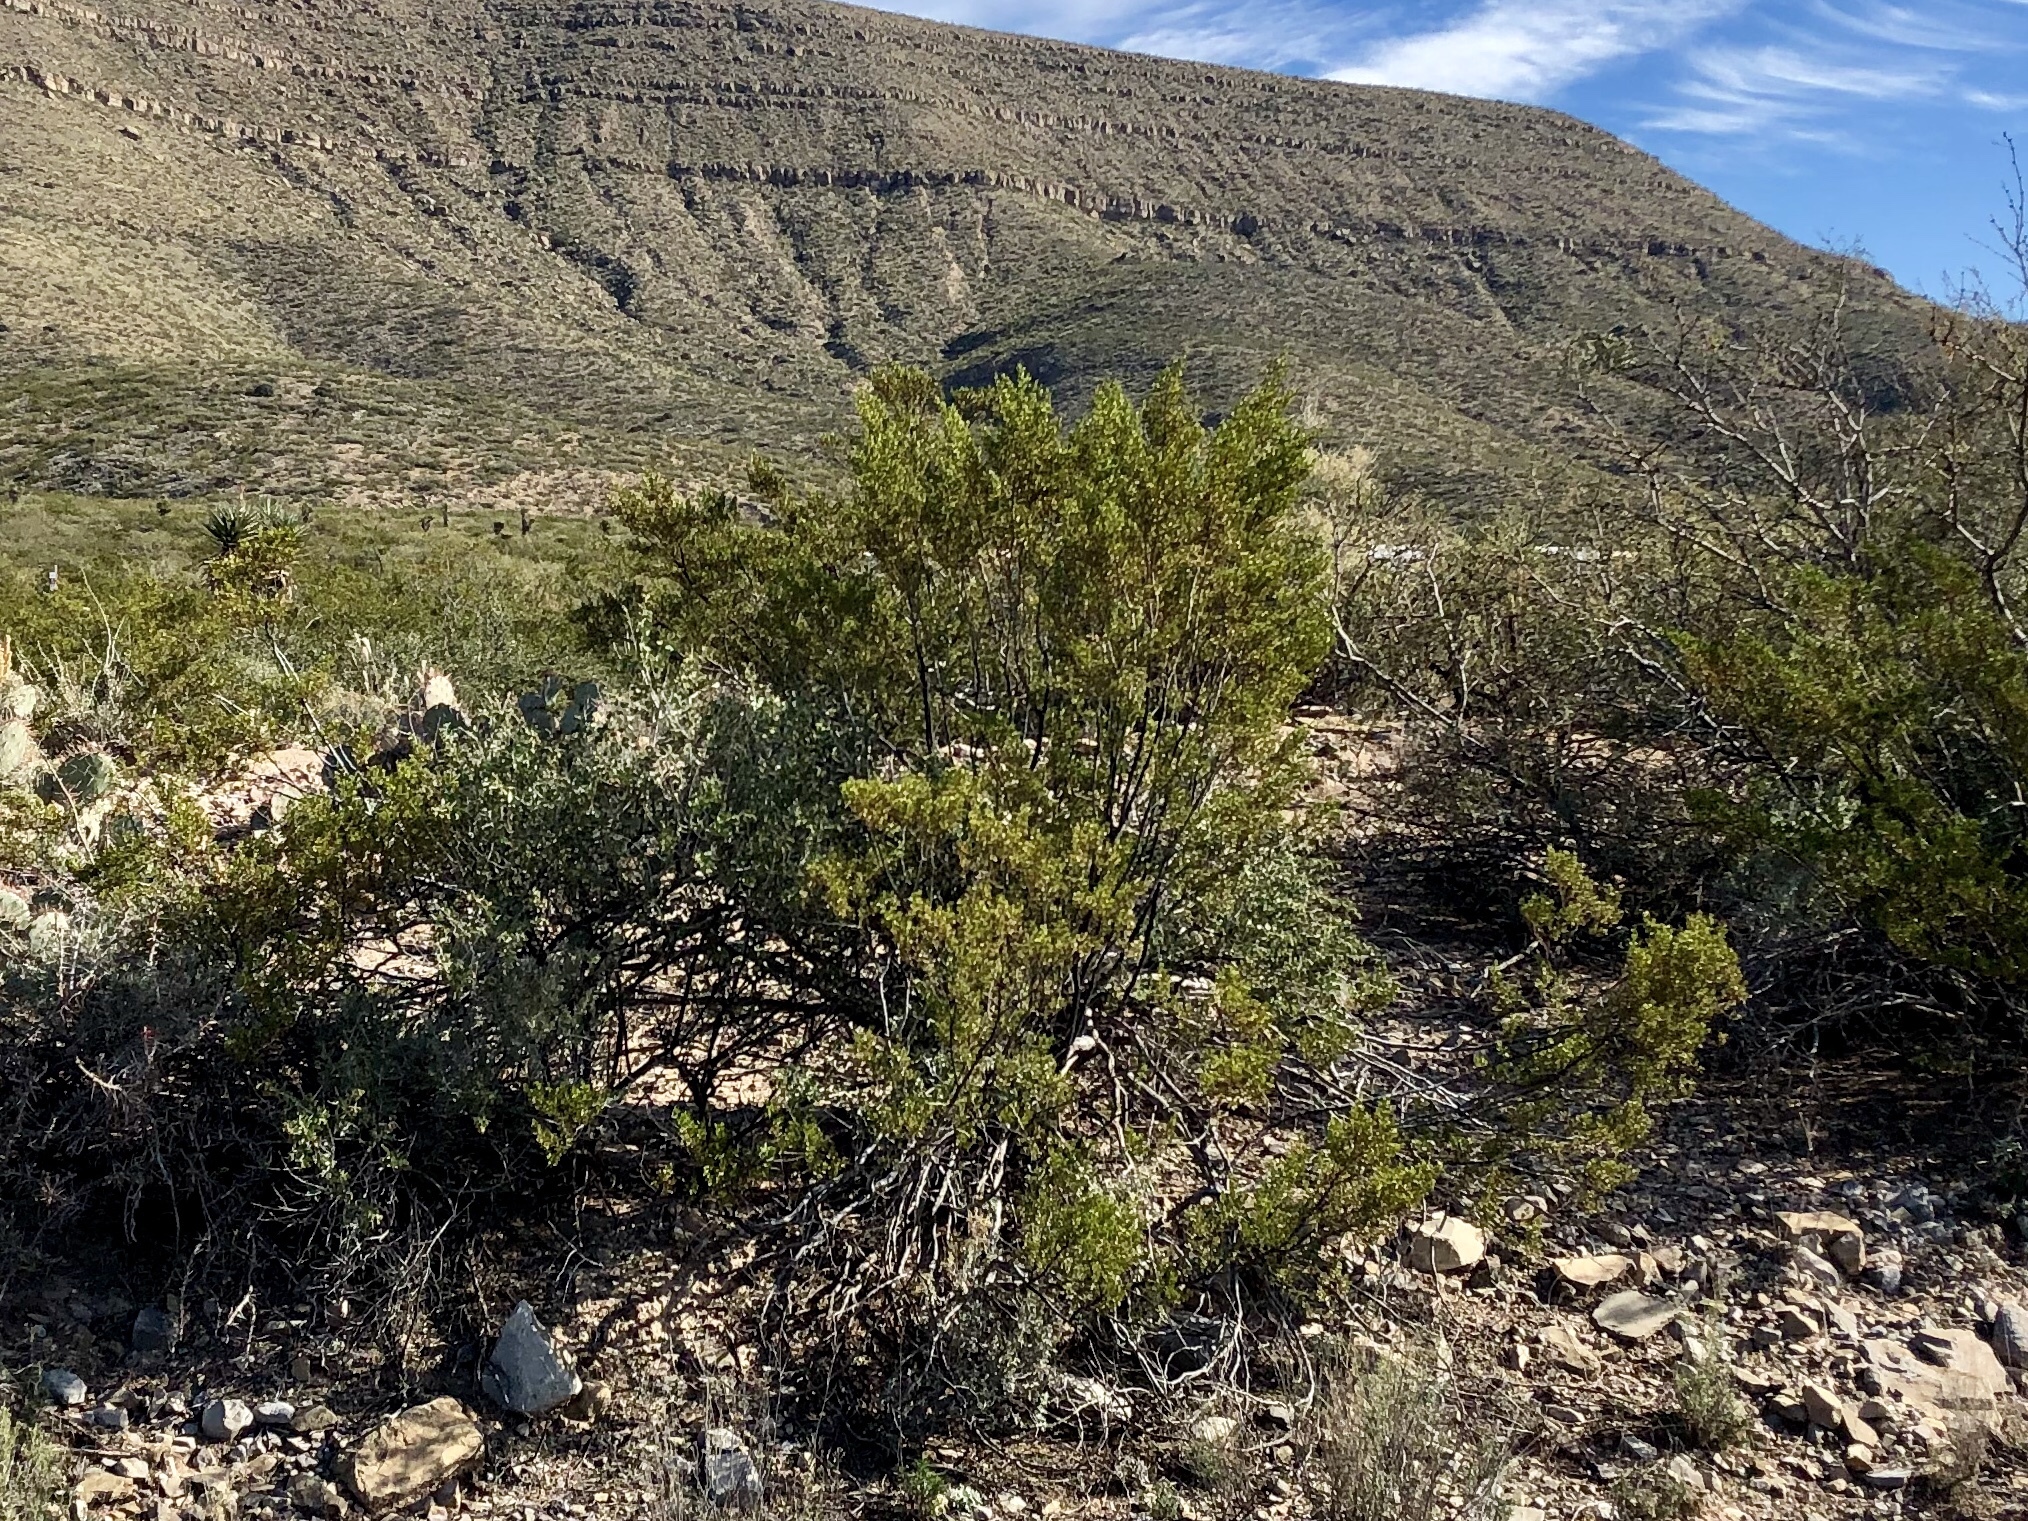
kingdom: Plantae
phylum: Tracheophyta
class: Magnoliopsida
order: Zygophyllales
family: Zygophyllaceae
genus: Larrea
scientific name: Larrea tridentata
